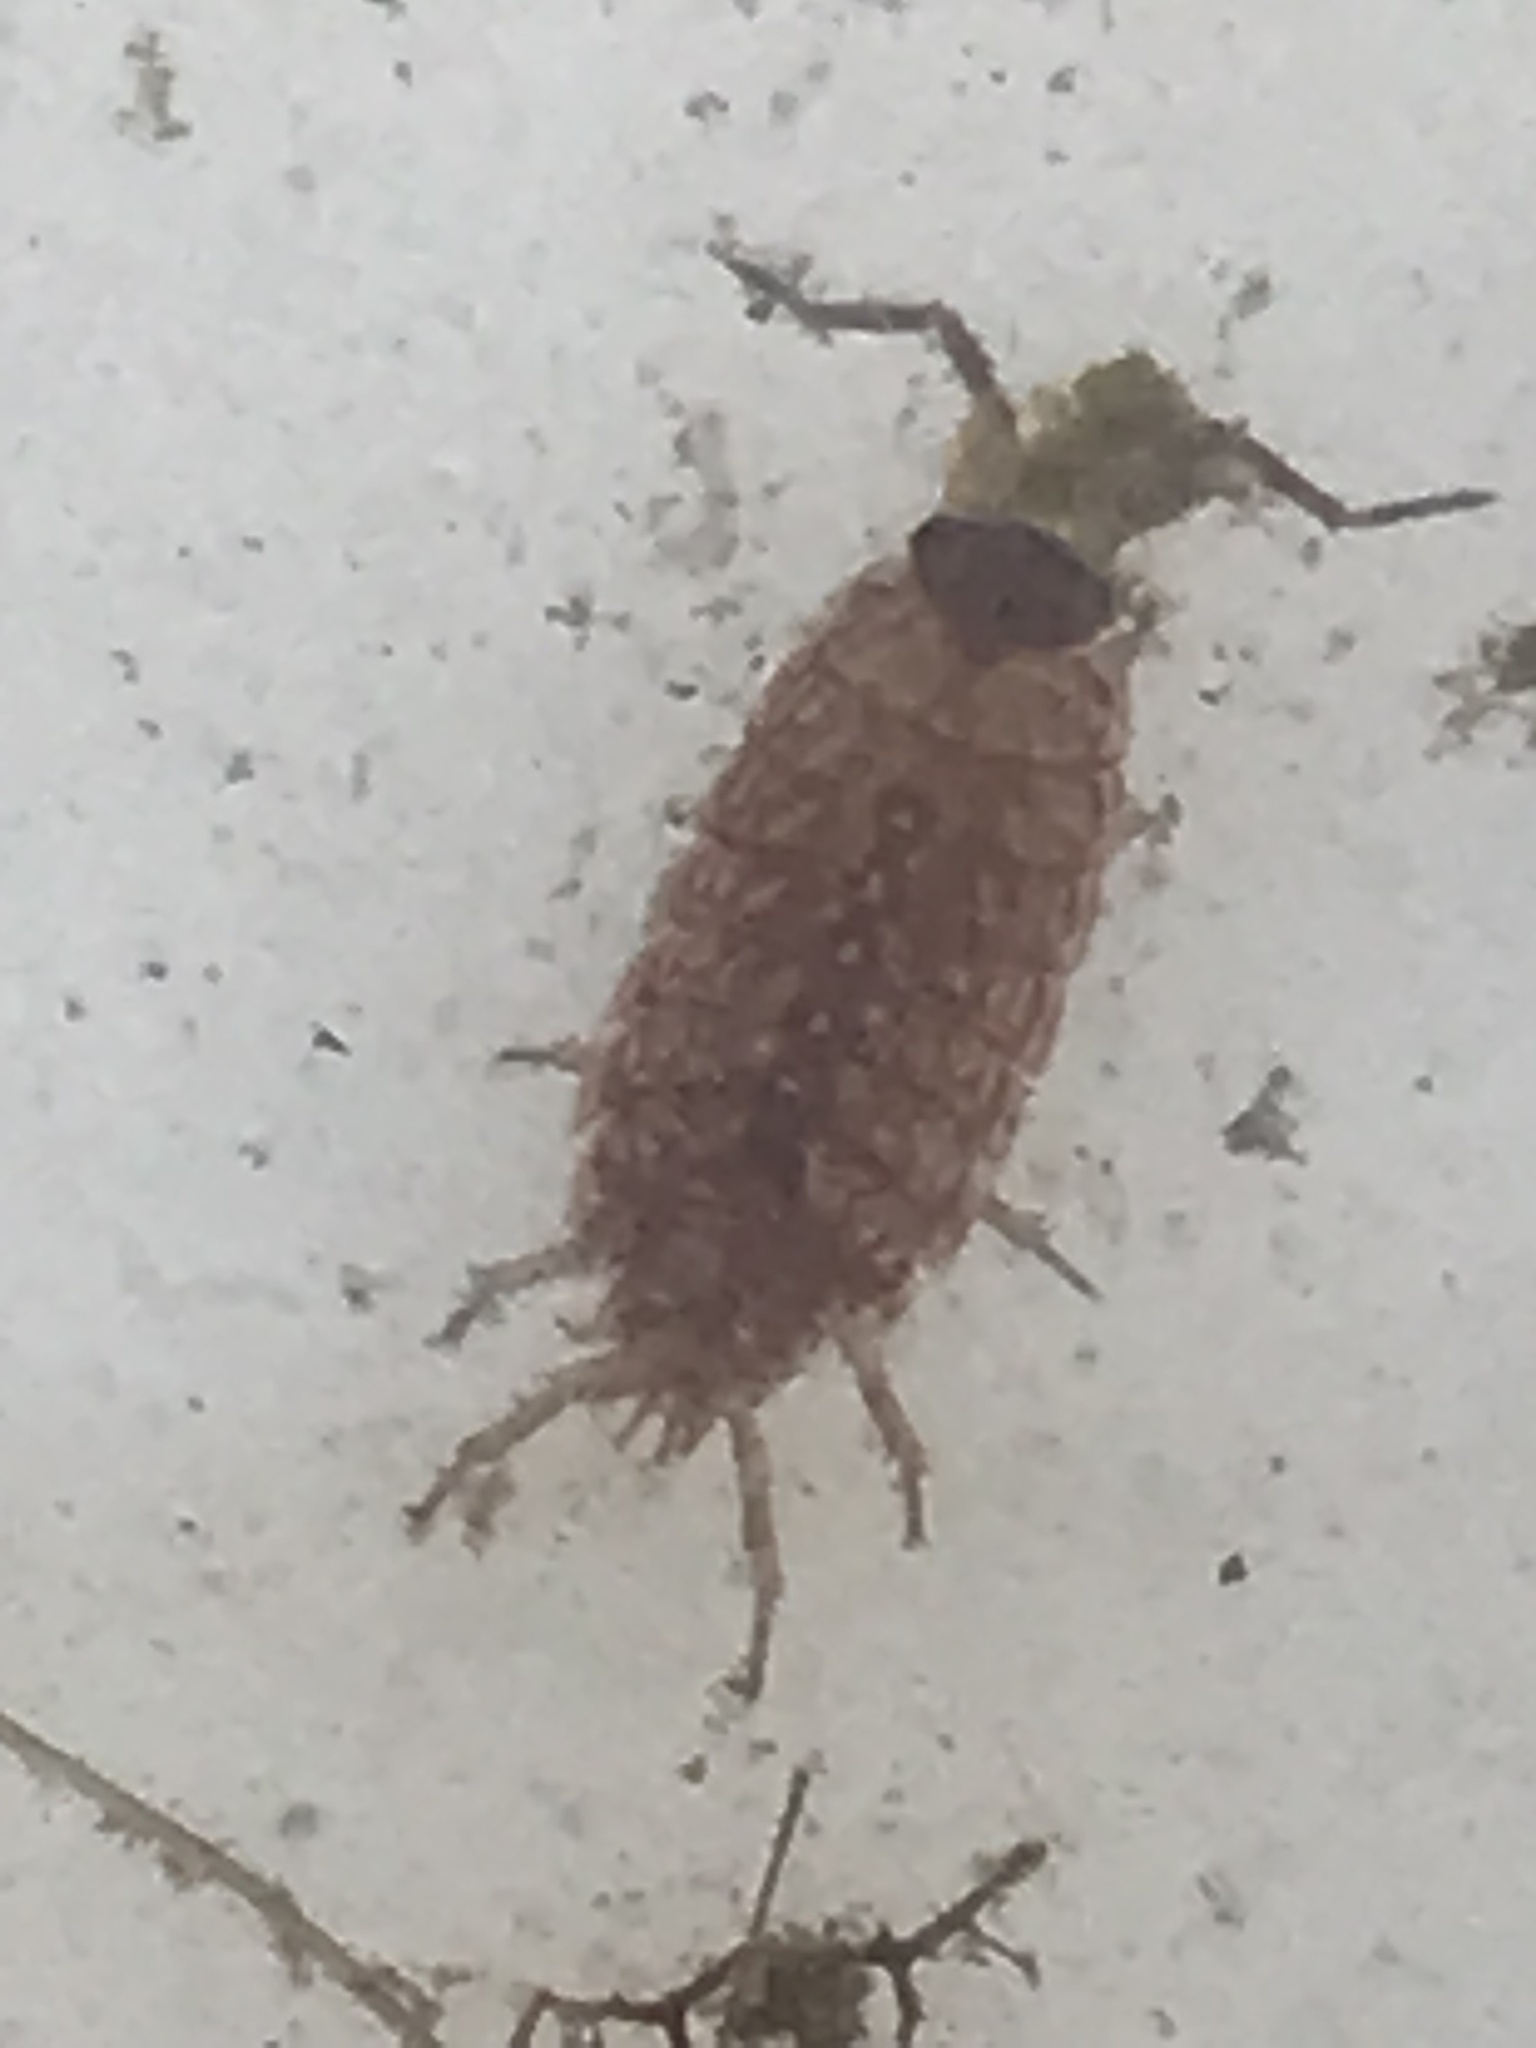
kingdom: Animalia
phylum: Arthropoda
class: Malacostraca
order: Isopoda
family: Philosciidae
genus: Philoscia
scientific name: Philoscia muscorum
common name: Common striped woodlouse
